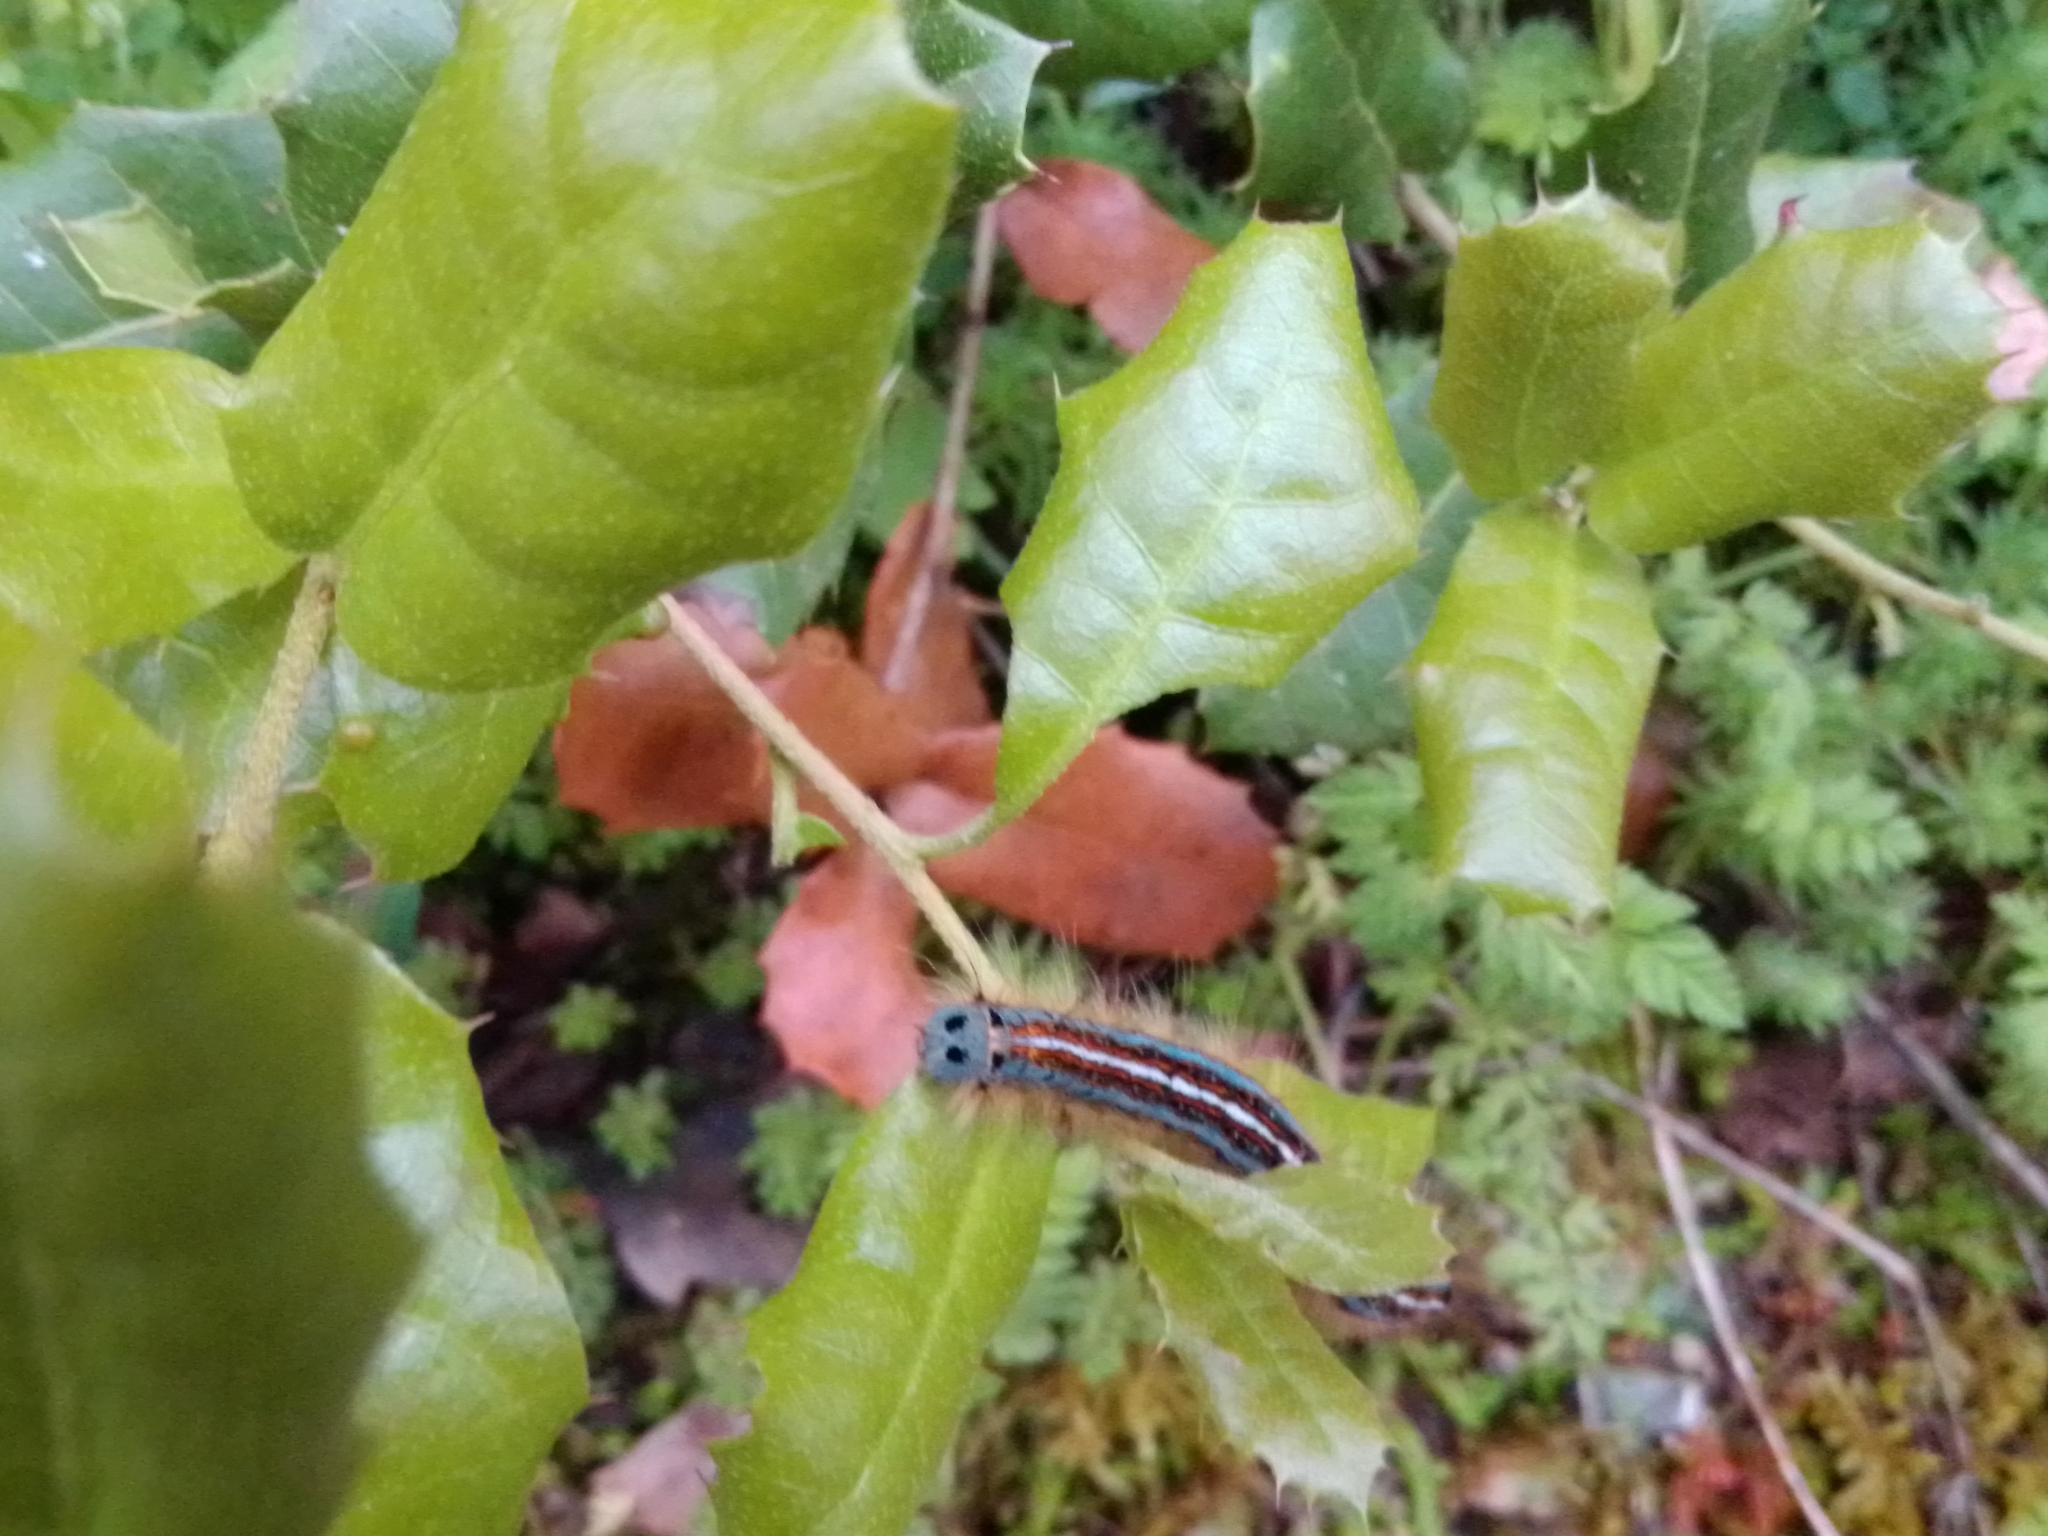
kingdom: Animalia
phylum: Arthropoda
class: Insecta
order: Lepidoptera
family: Lasiocampidae
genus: Malacosoma
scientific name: Malacosoma neustria
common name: The lackey
